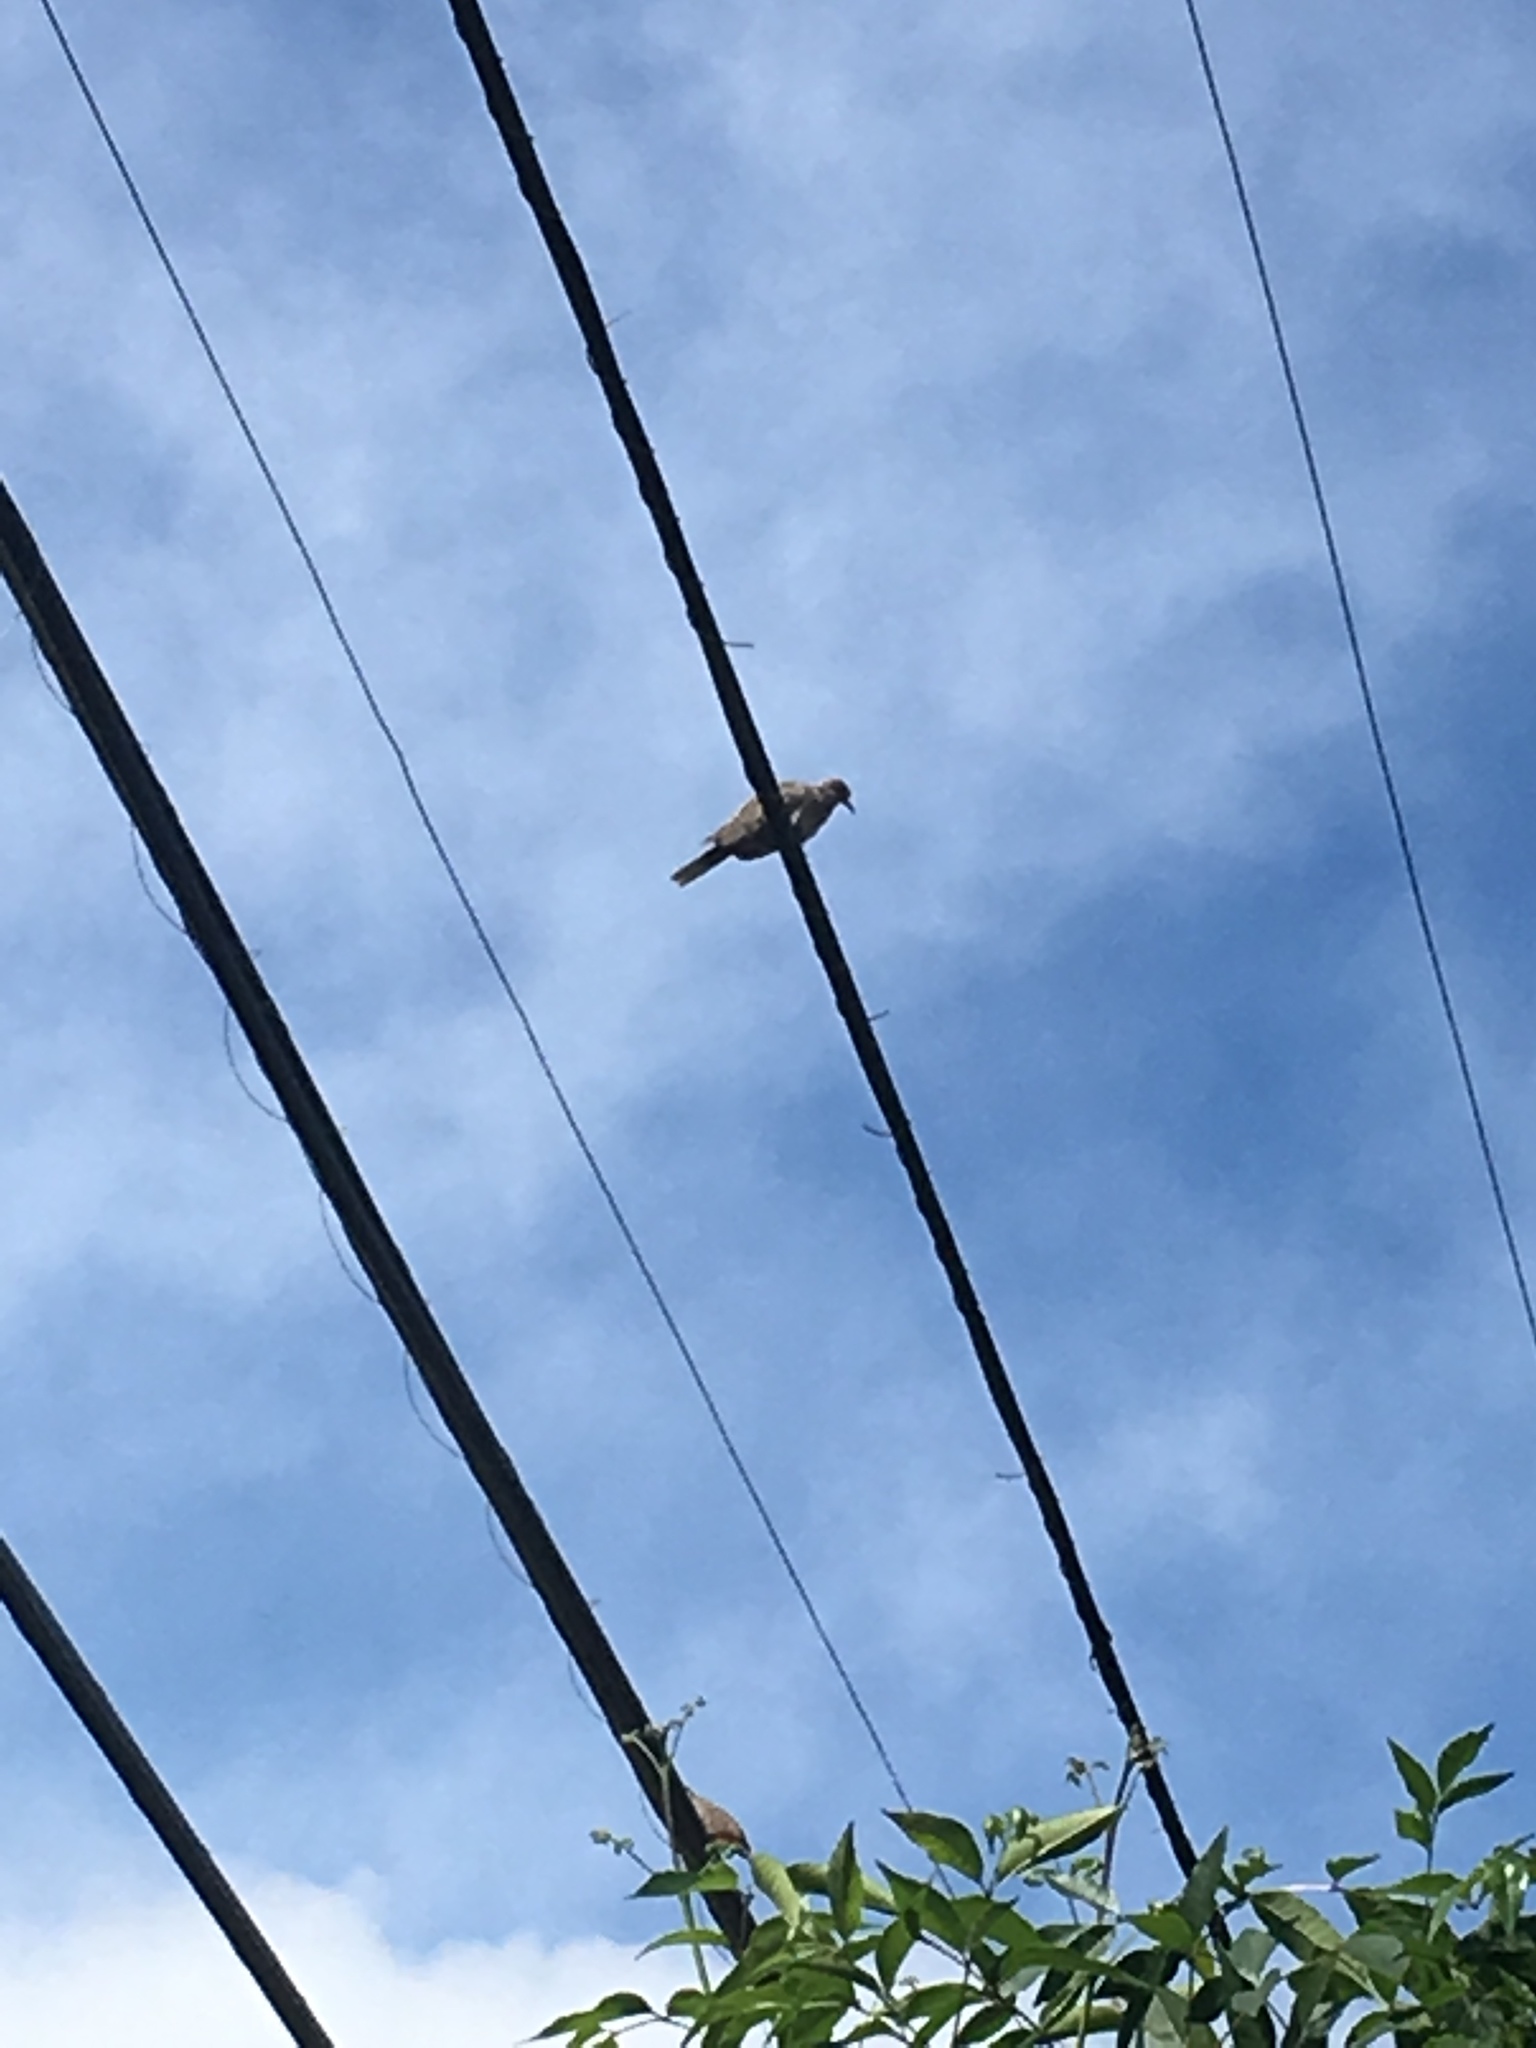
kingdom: Animalia
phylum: Chordata
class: Aves
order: Columbiformes
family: Columbidae
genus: Zenaida
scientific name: Zenaida asiatica
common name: White-winged dove
